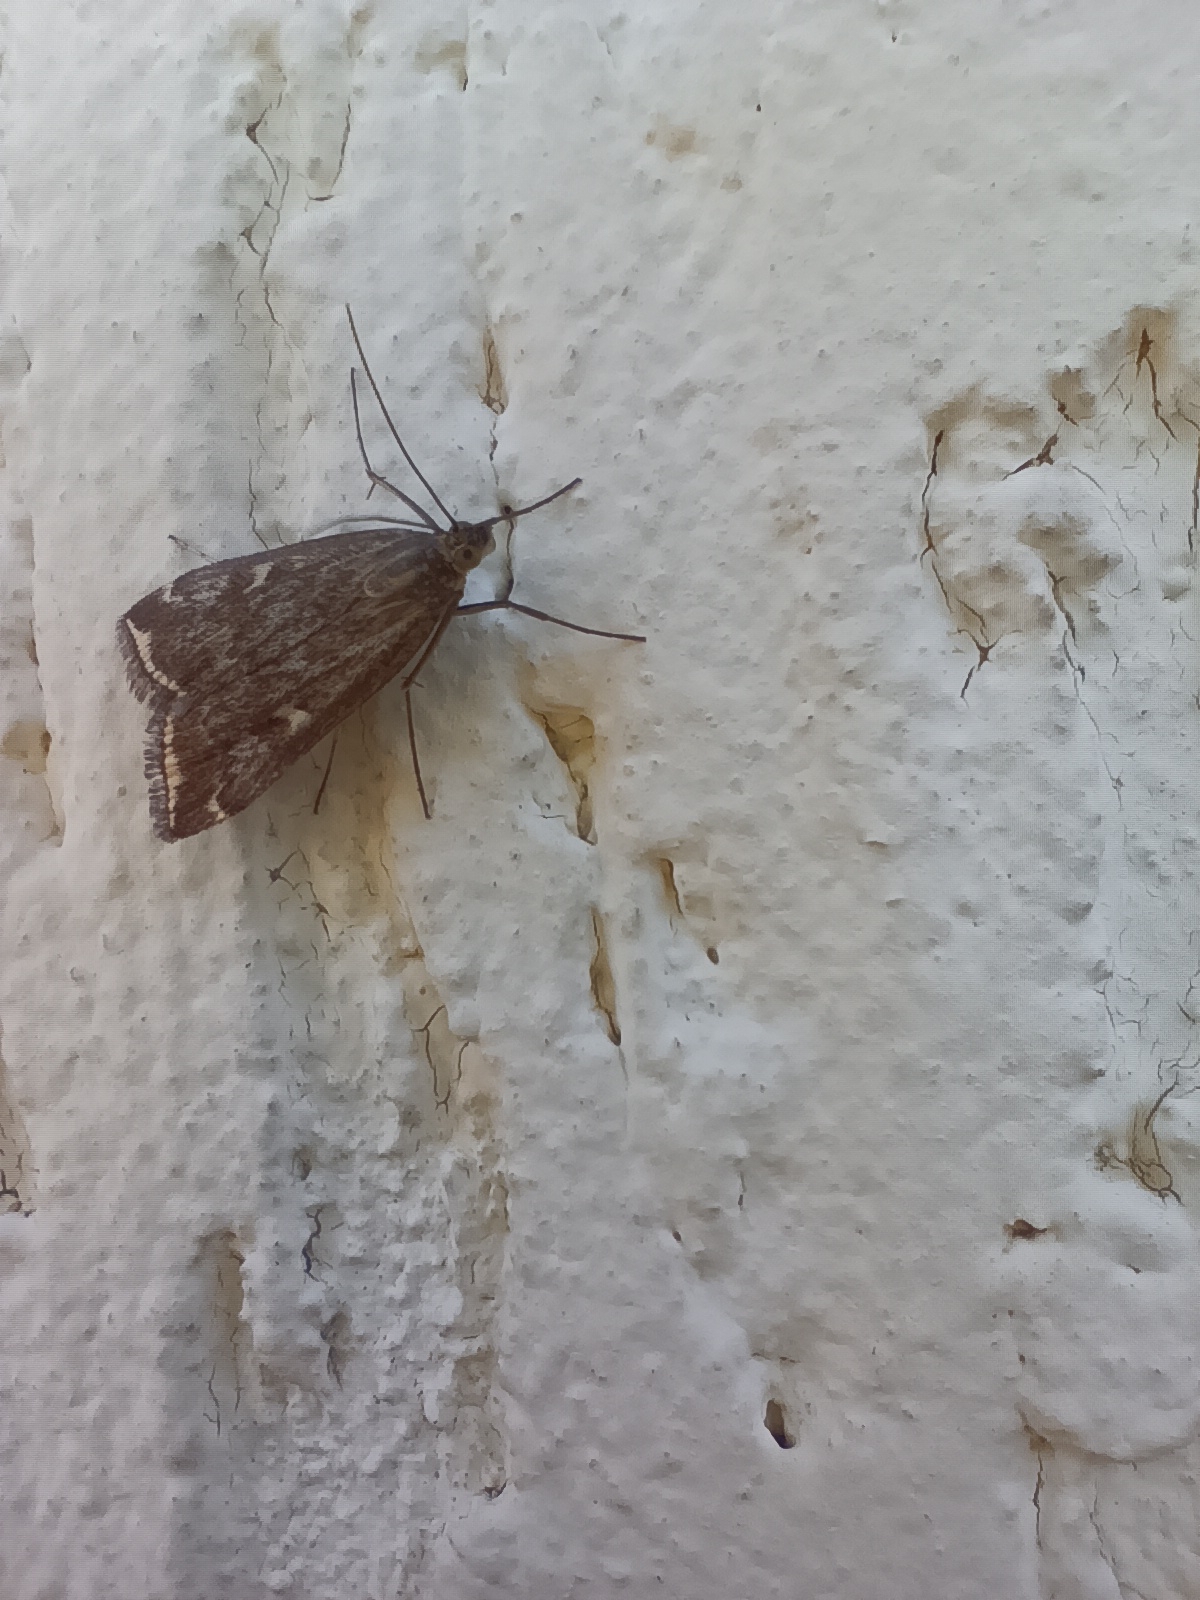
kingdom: Animalia
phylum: Arthropoda
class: Insecta
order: Lepidoptera
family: Crambidae
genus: Loxostege
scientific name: Loxostege sticticalis
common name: Crambid moth
